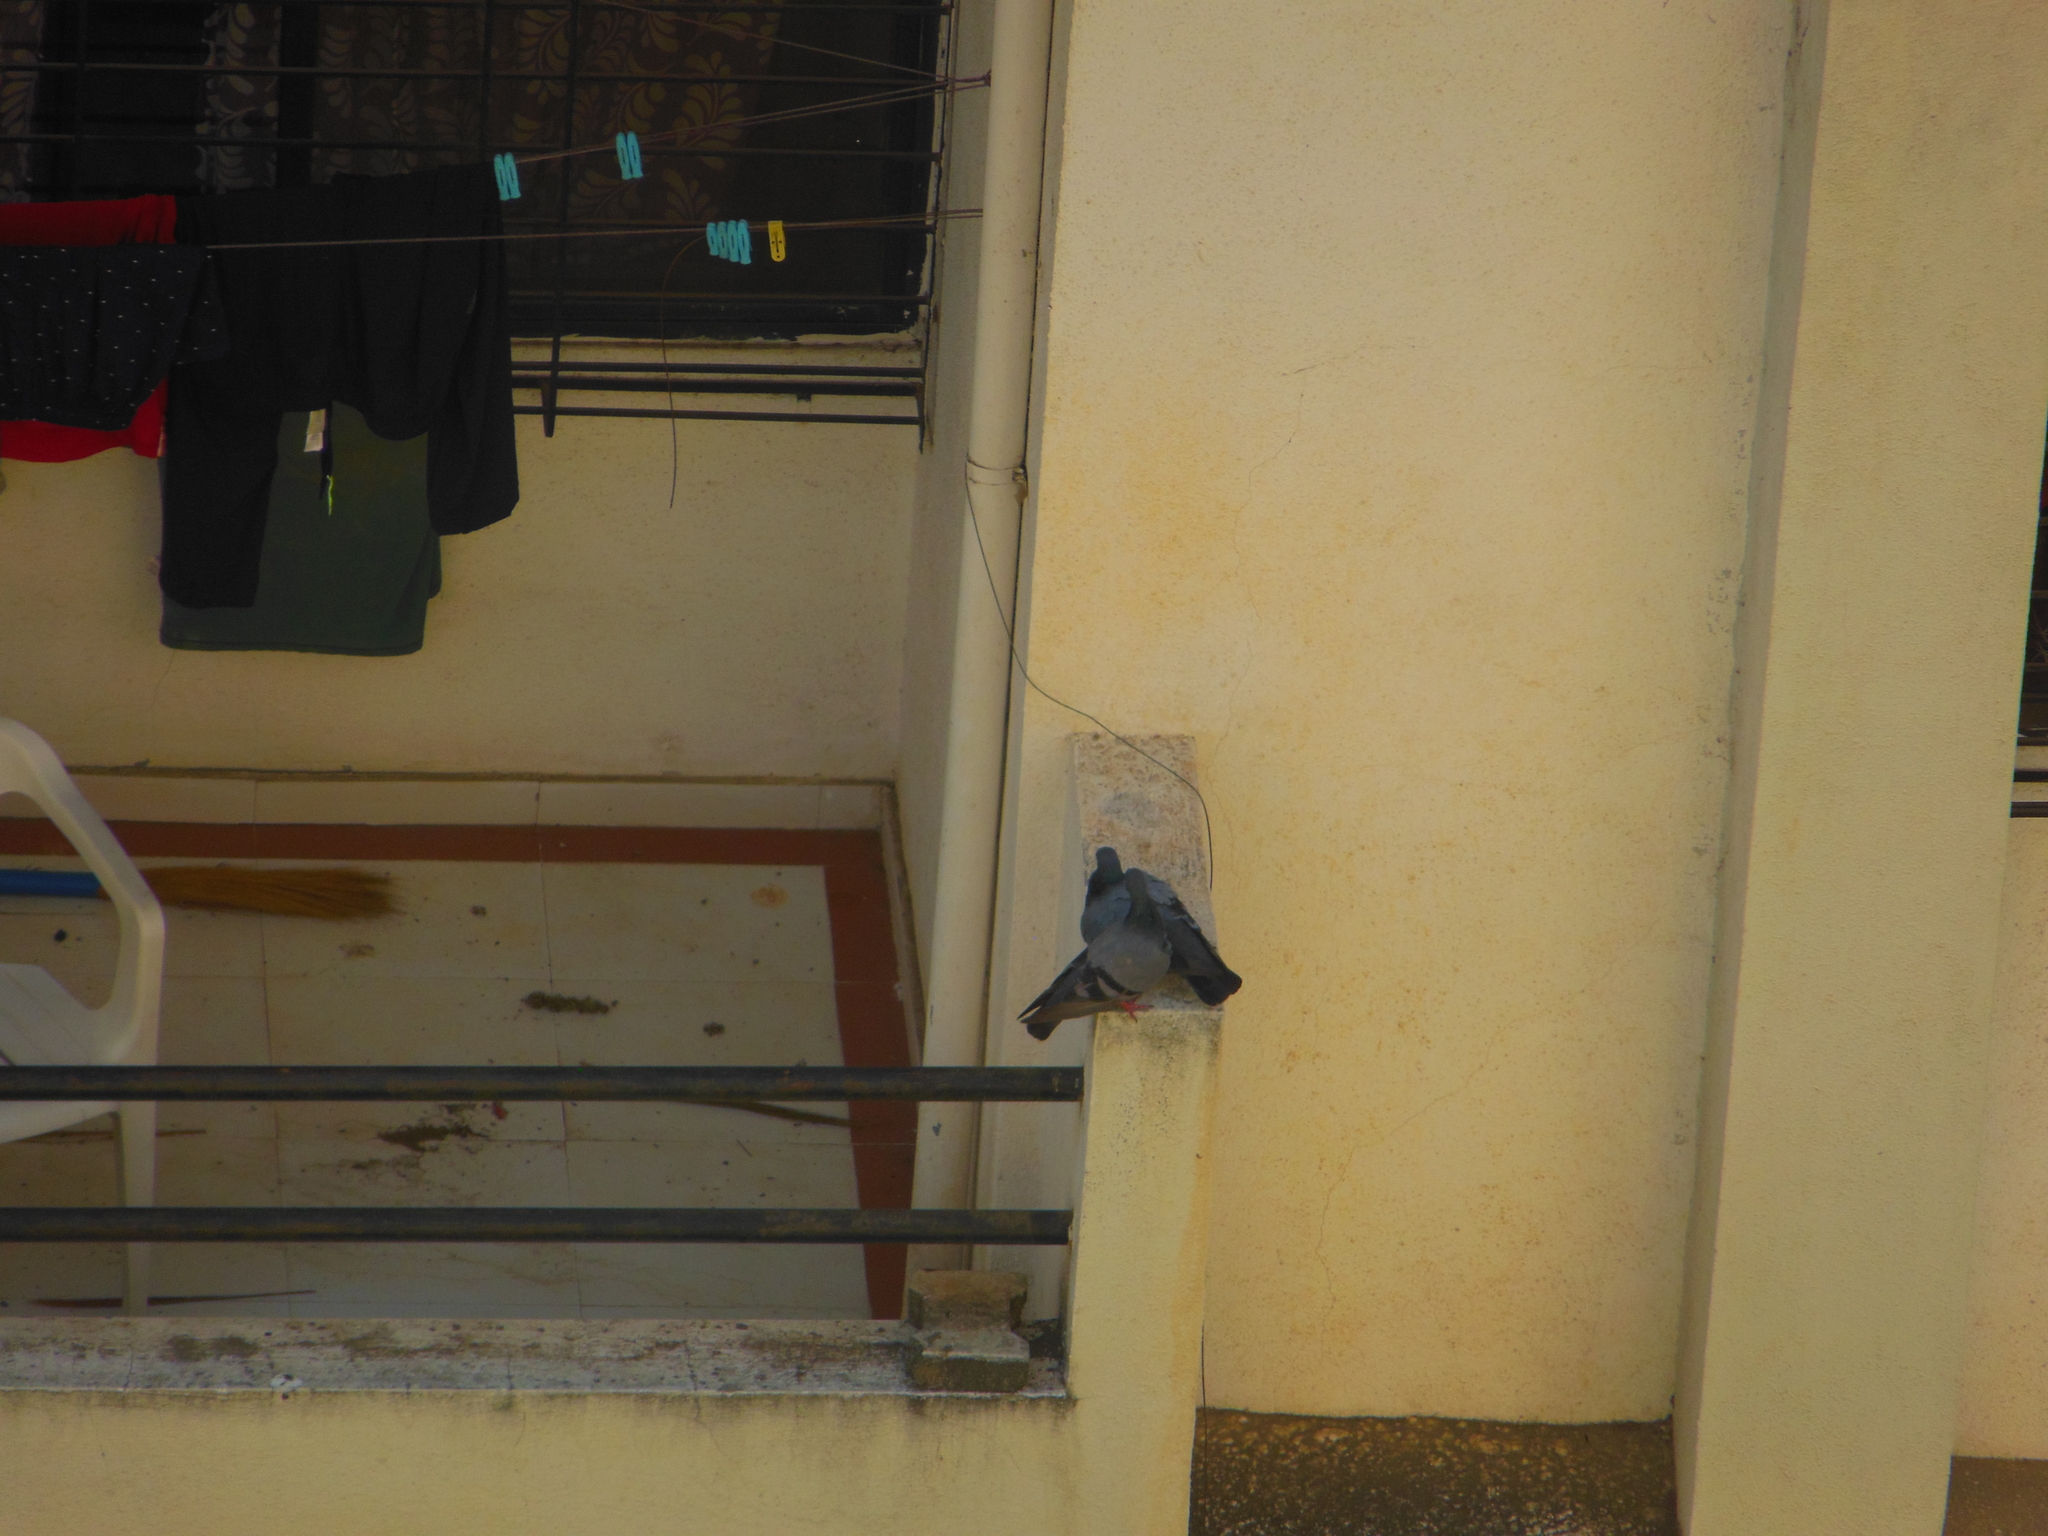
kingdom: Animalia
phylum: Chordata
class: Aves
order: Columbiformes
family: Columbidae
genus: Columba
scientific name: Columba livia
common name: Rock pigeon
